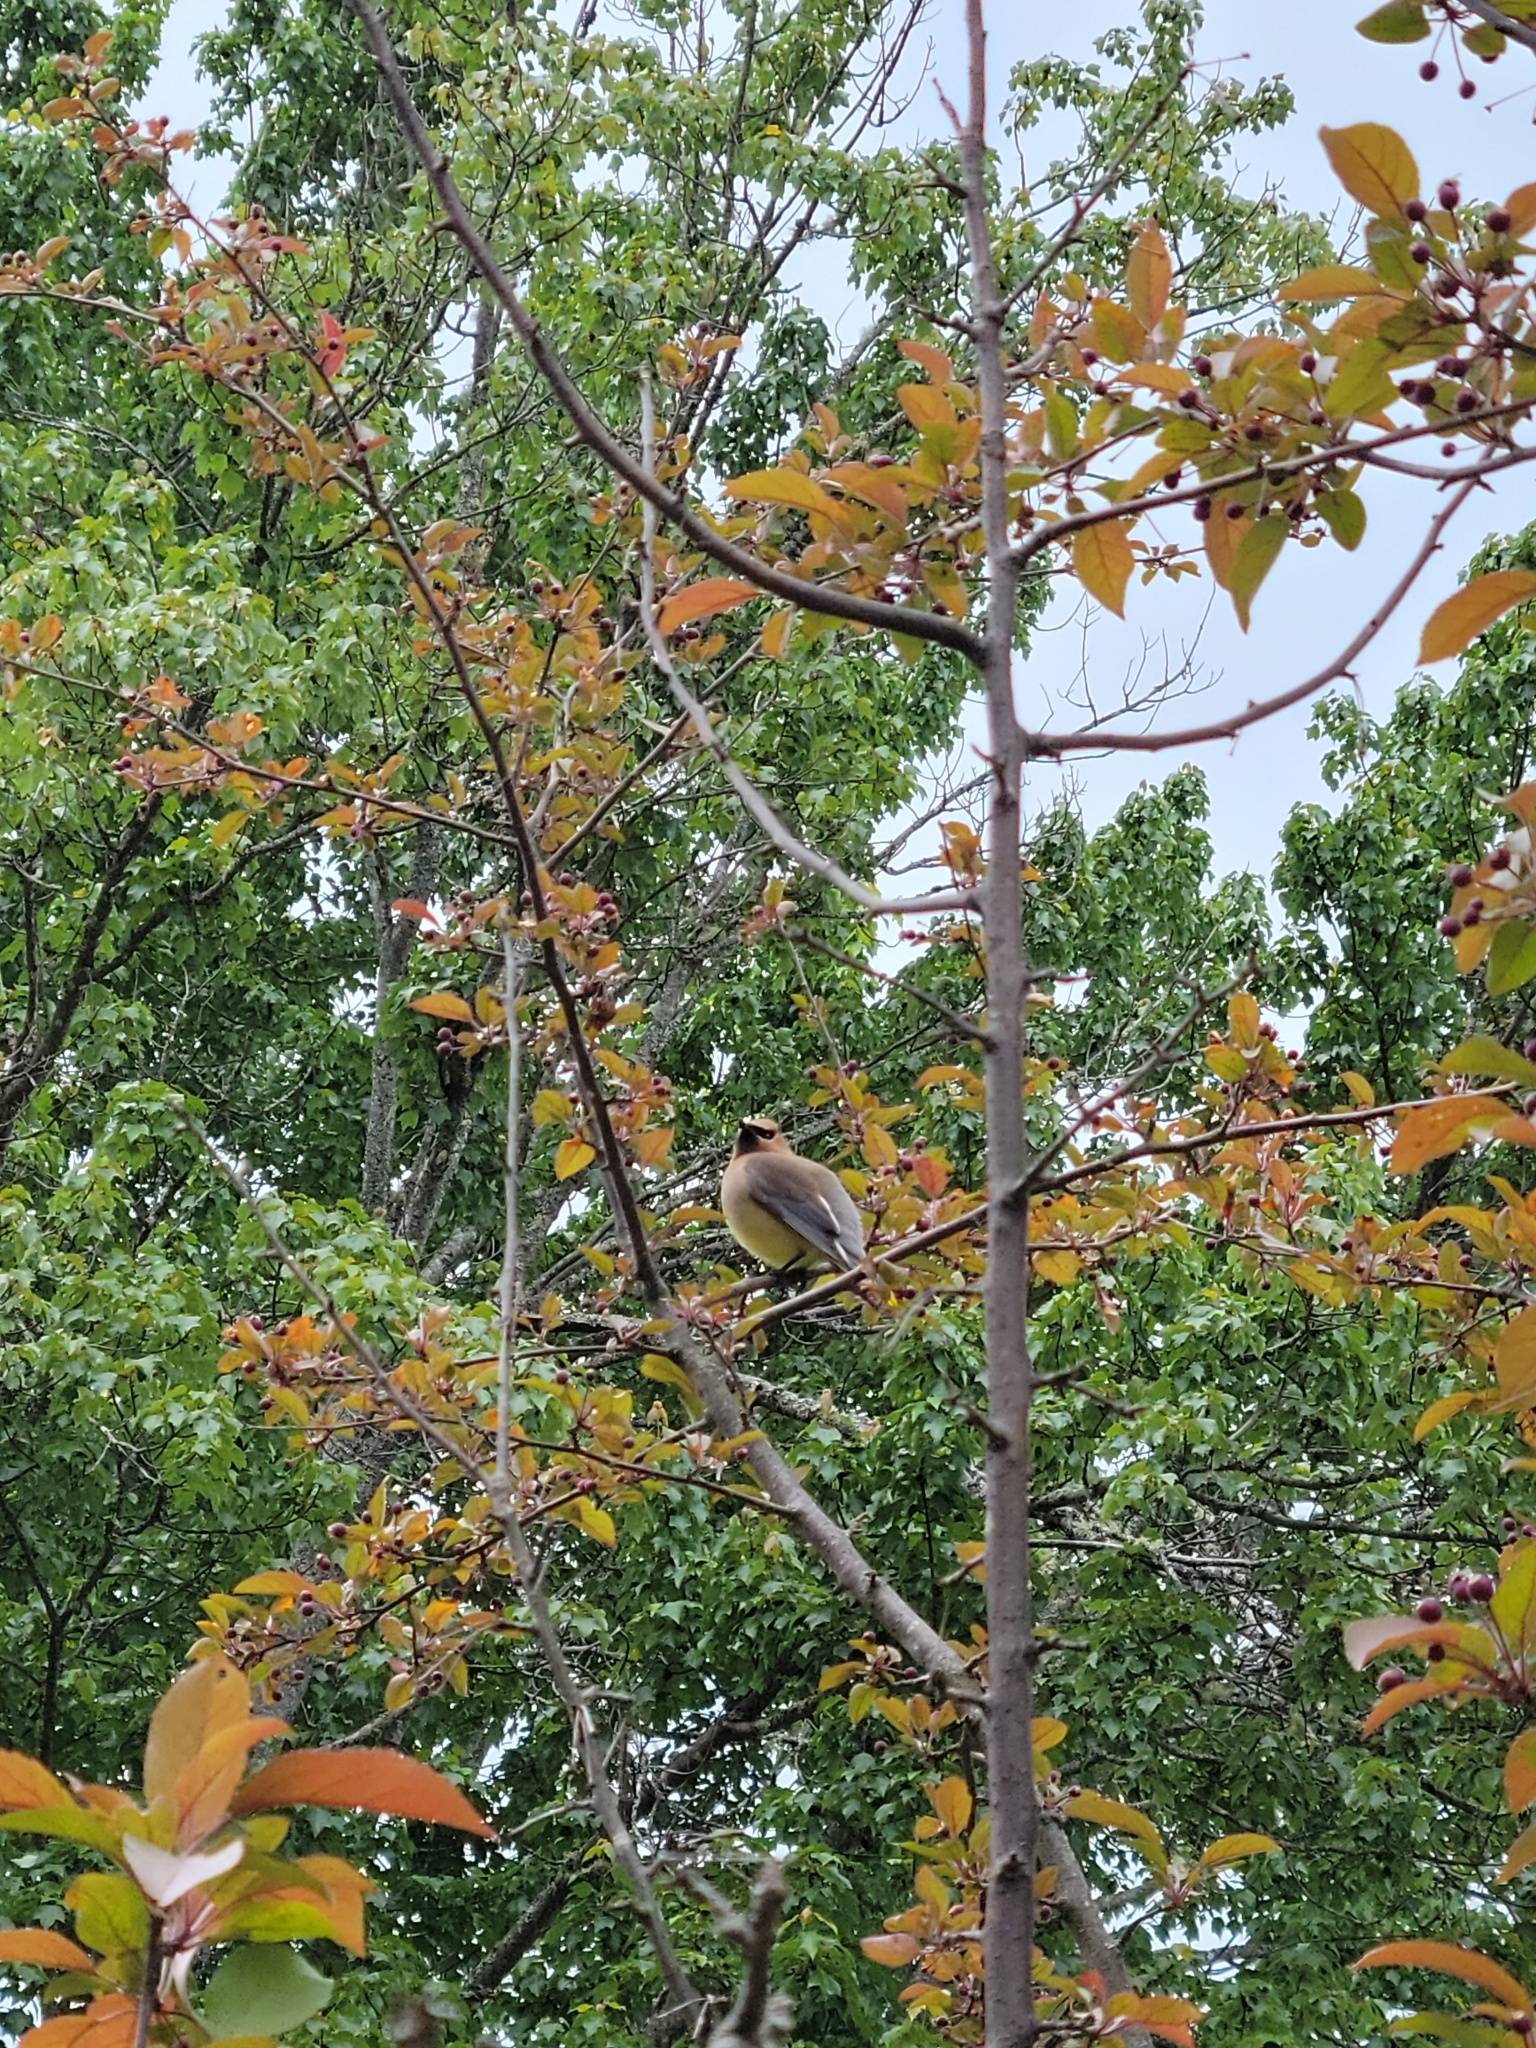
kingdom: Animalia
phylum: Chordata
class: Aves
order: Passeriformes
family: Bombycillidae
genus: Bombycilla
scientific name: Bombycilla cedrorum
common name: Cedar waxwing
